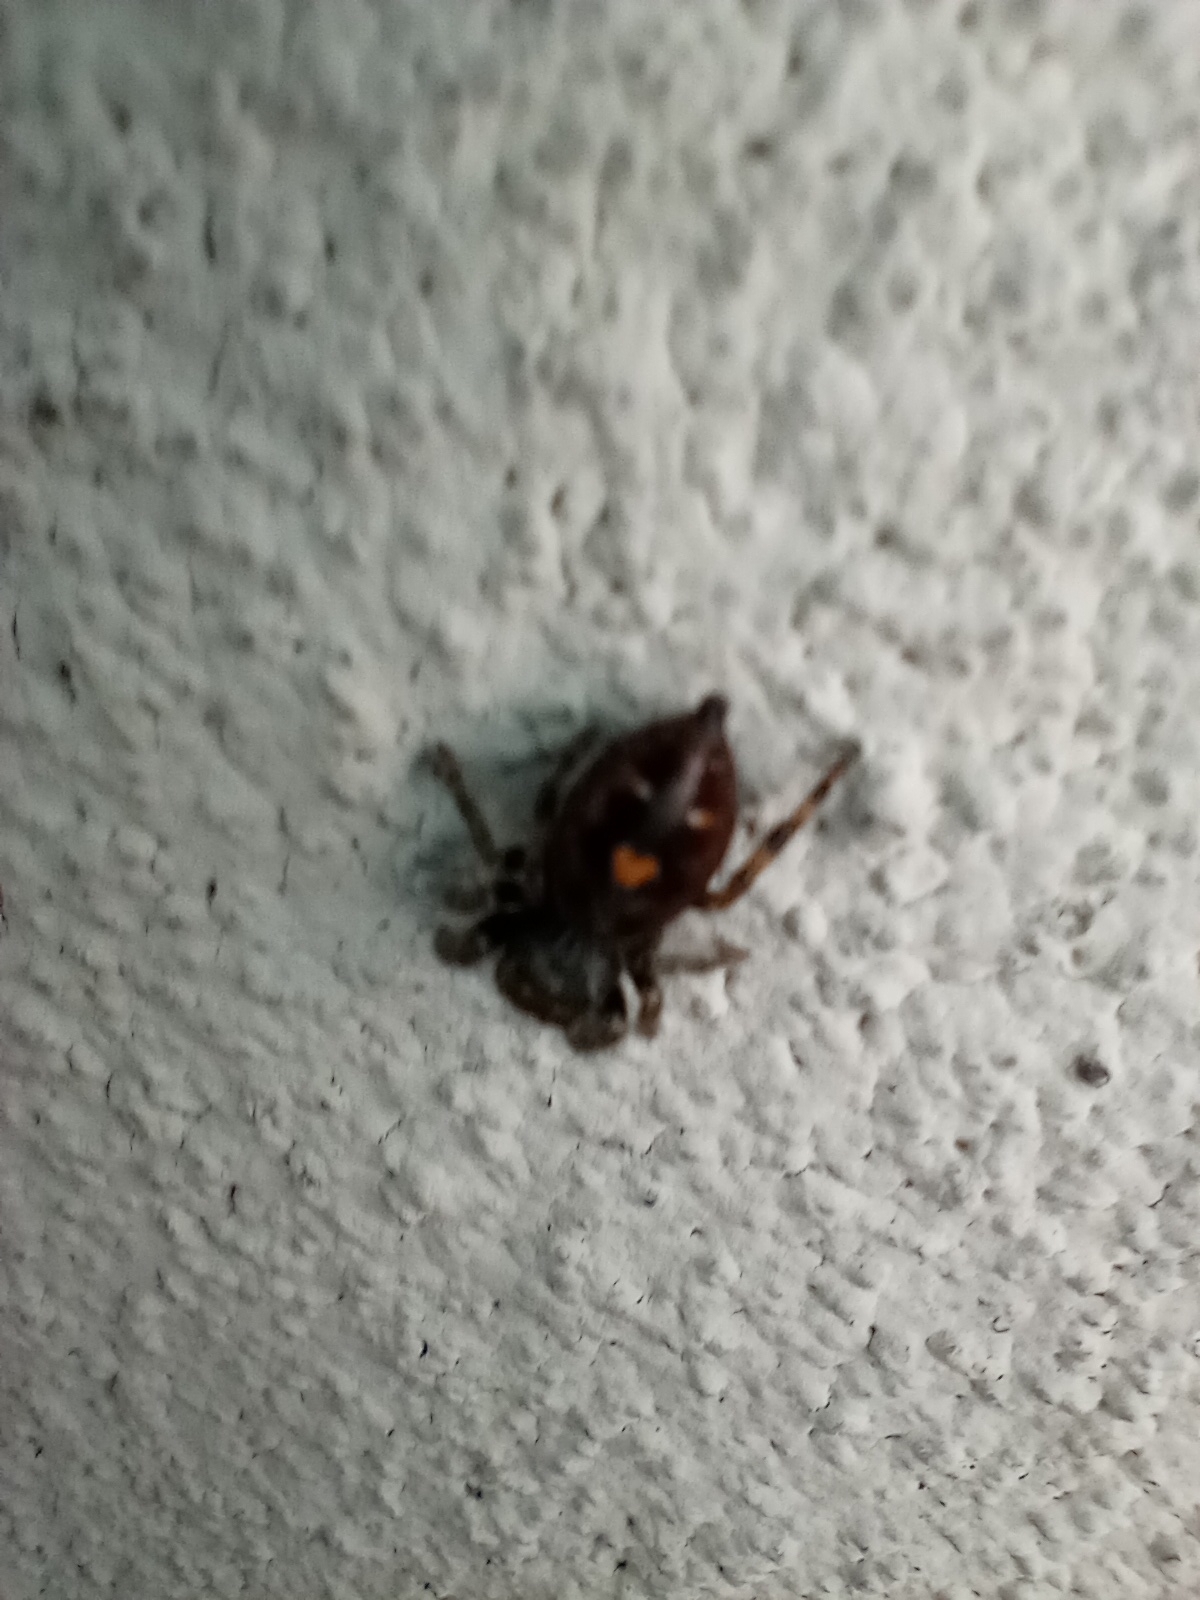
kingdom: Animalia
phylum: Arthropoda
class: Arachnida
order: Araneae
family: Salticidae
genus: Phidippus
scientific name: Phidippus audax
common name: Bold jumper
